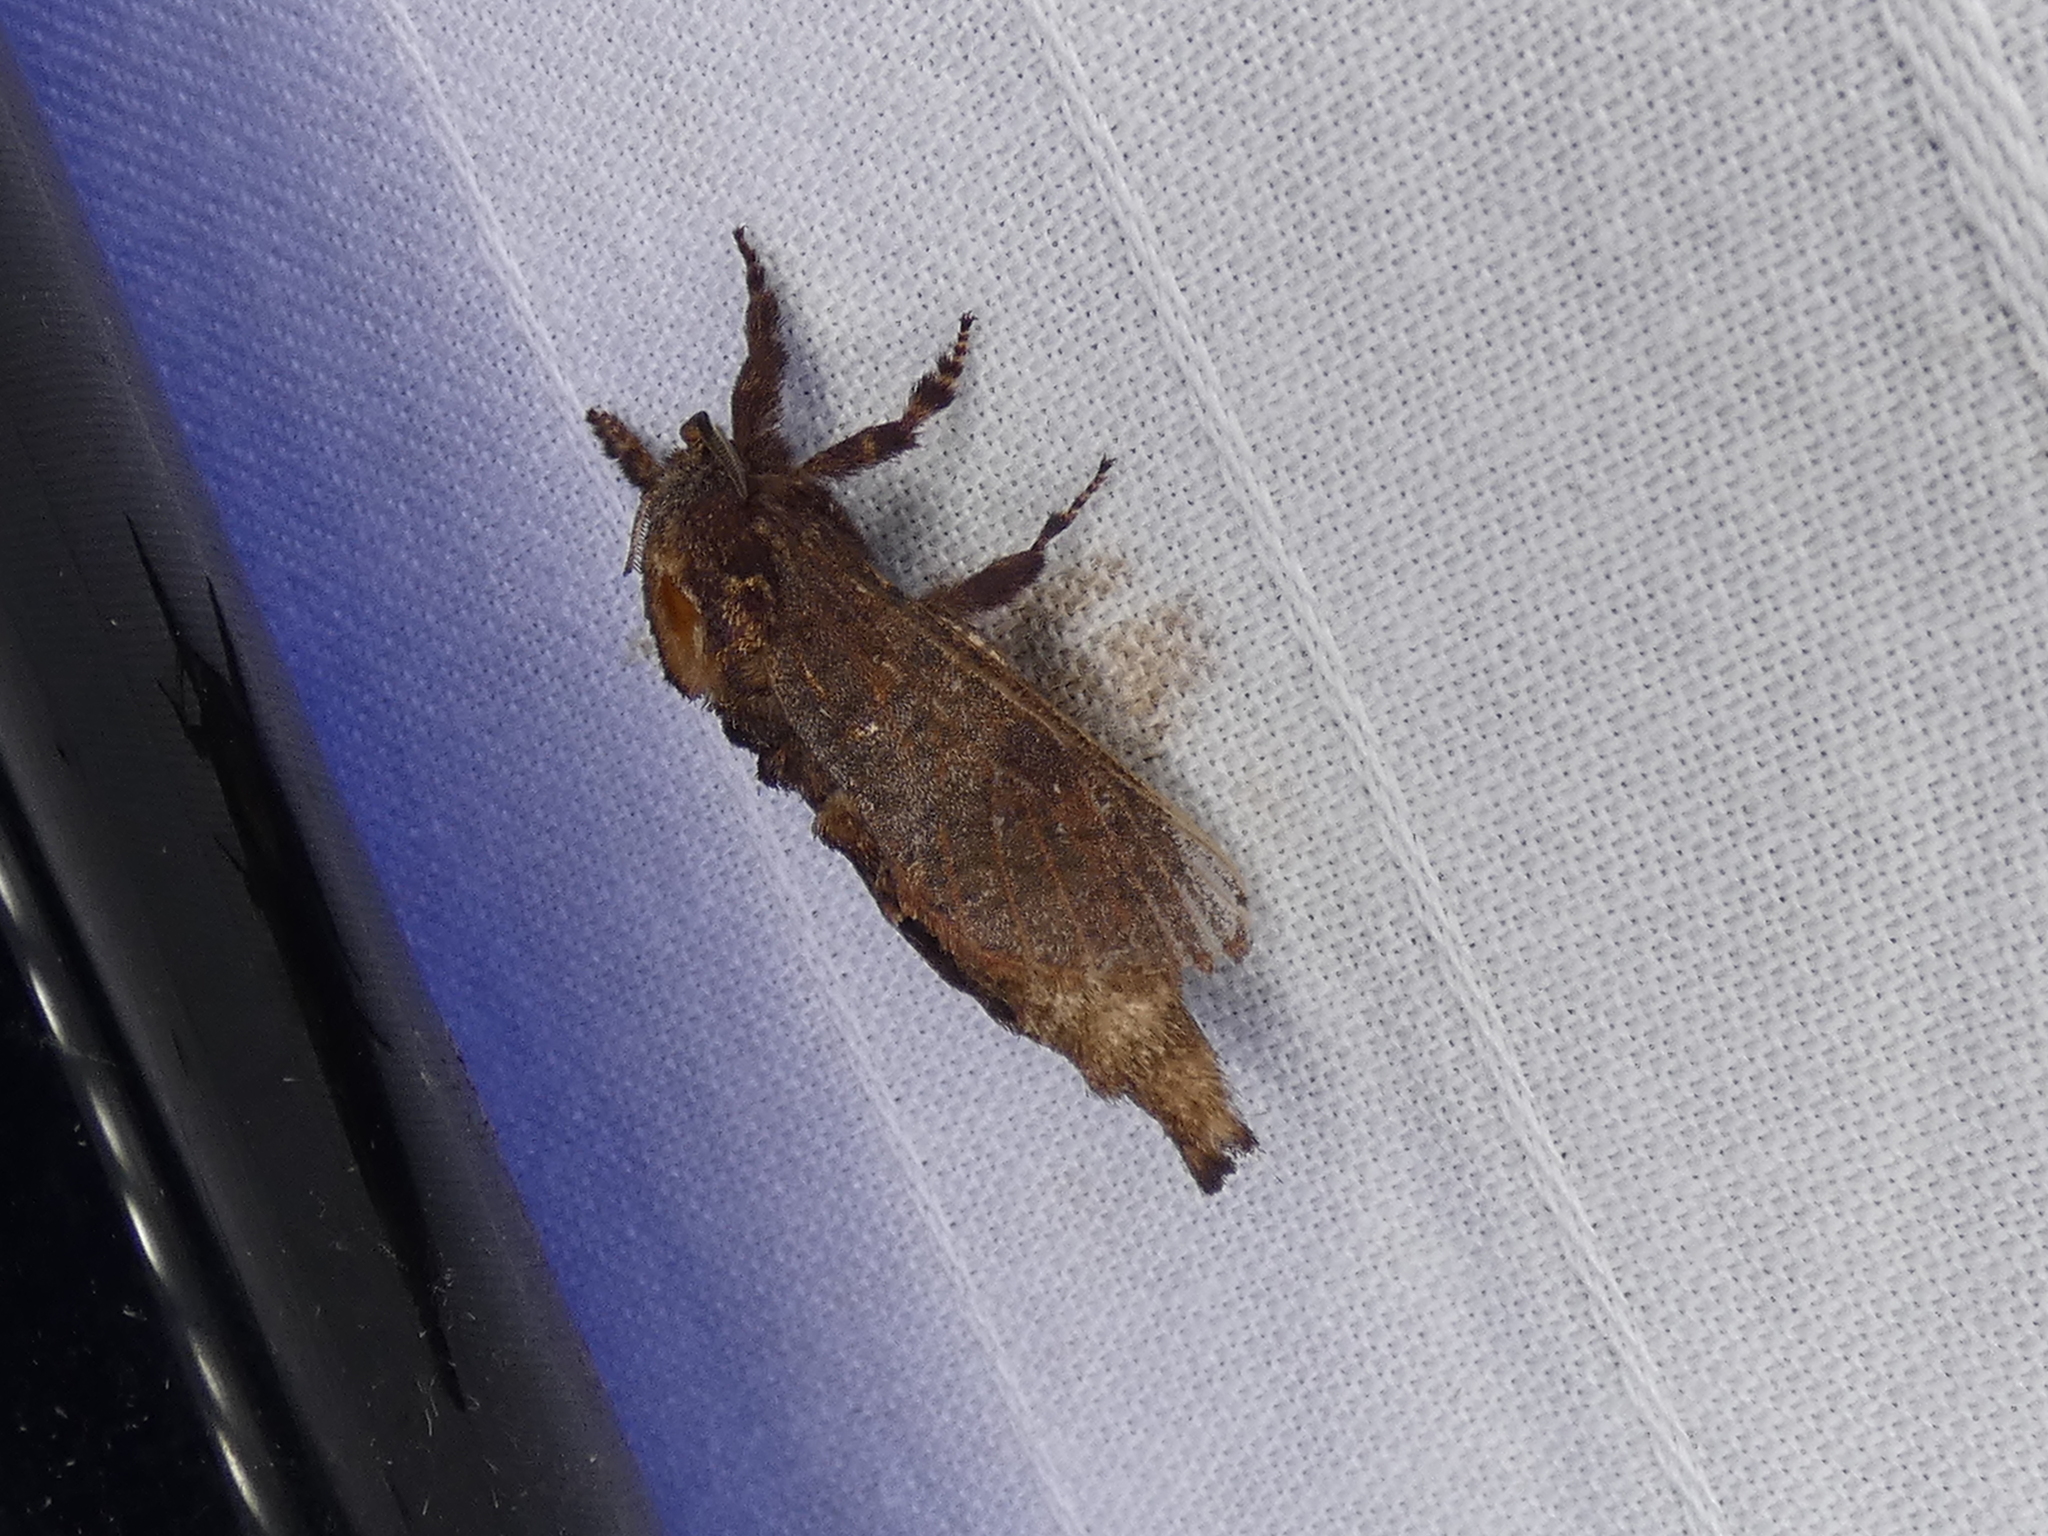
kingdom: Animalia
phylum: Arthropoda
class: Insecta
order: Lepidoptera
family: Cossidae
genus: Givira
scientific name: Givira arbeloides
